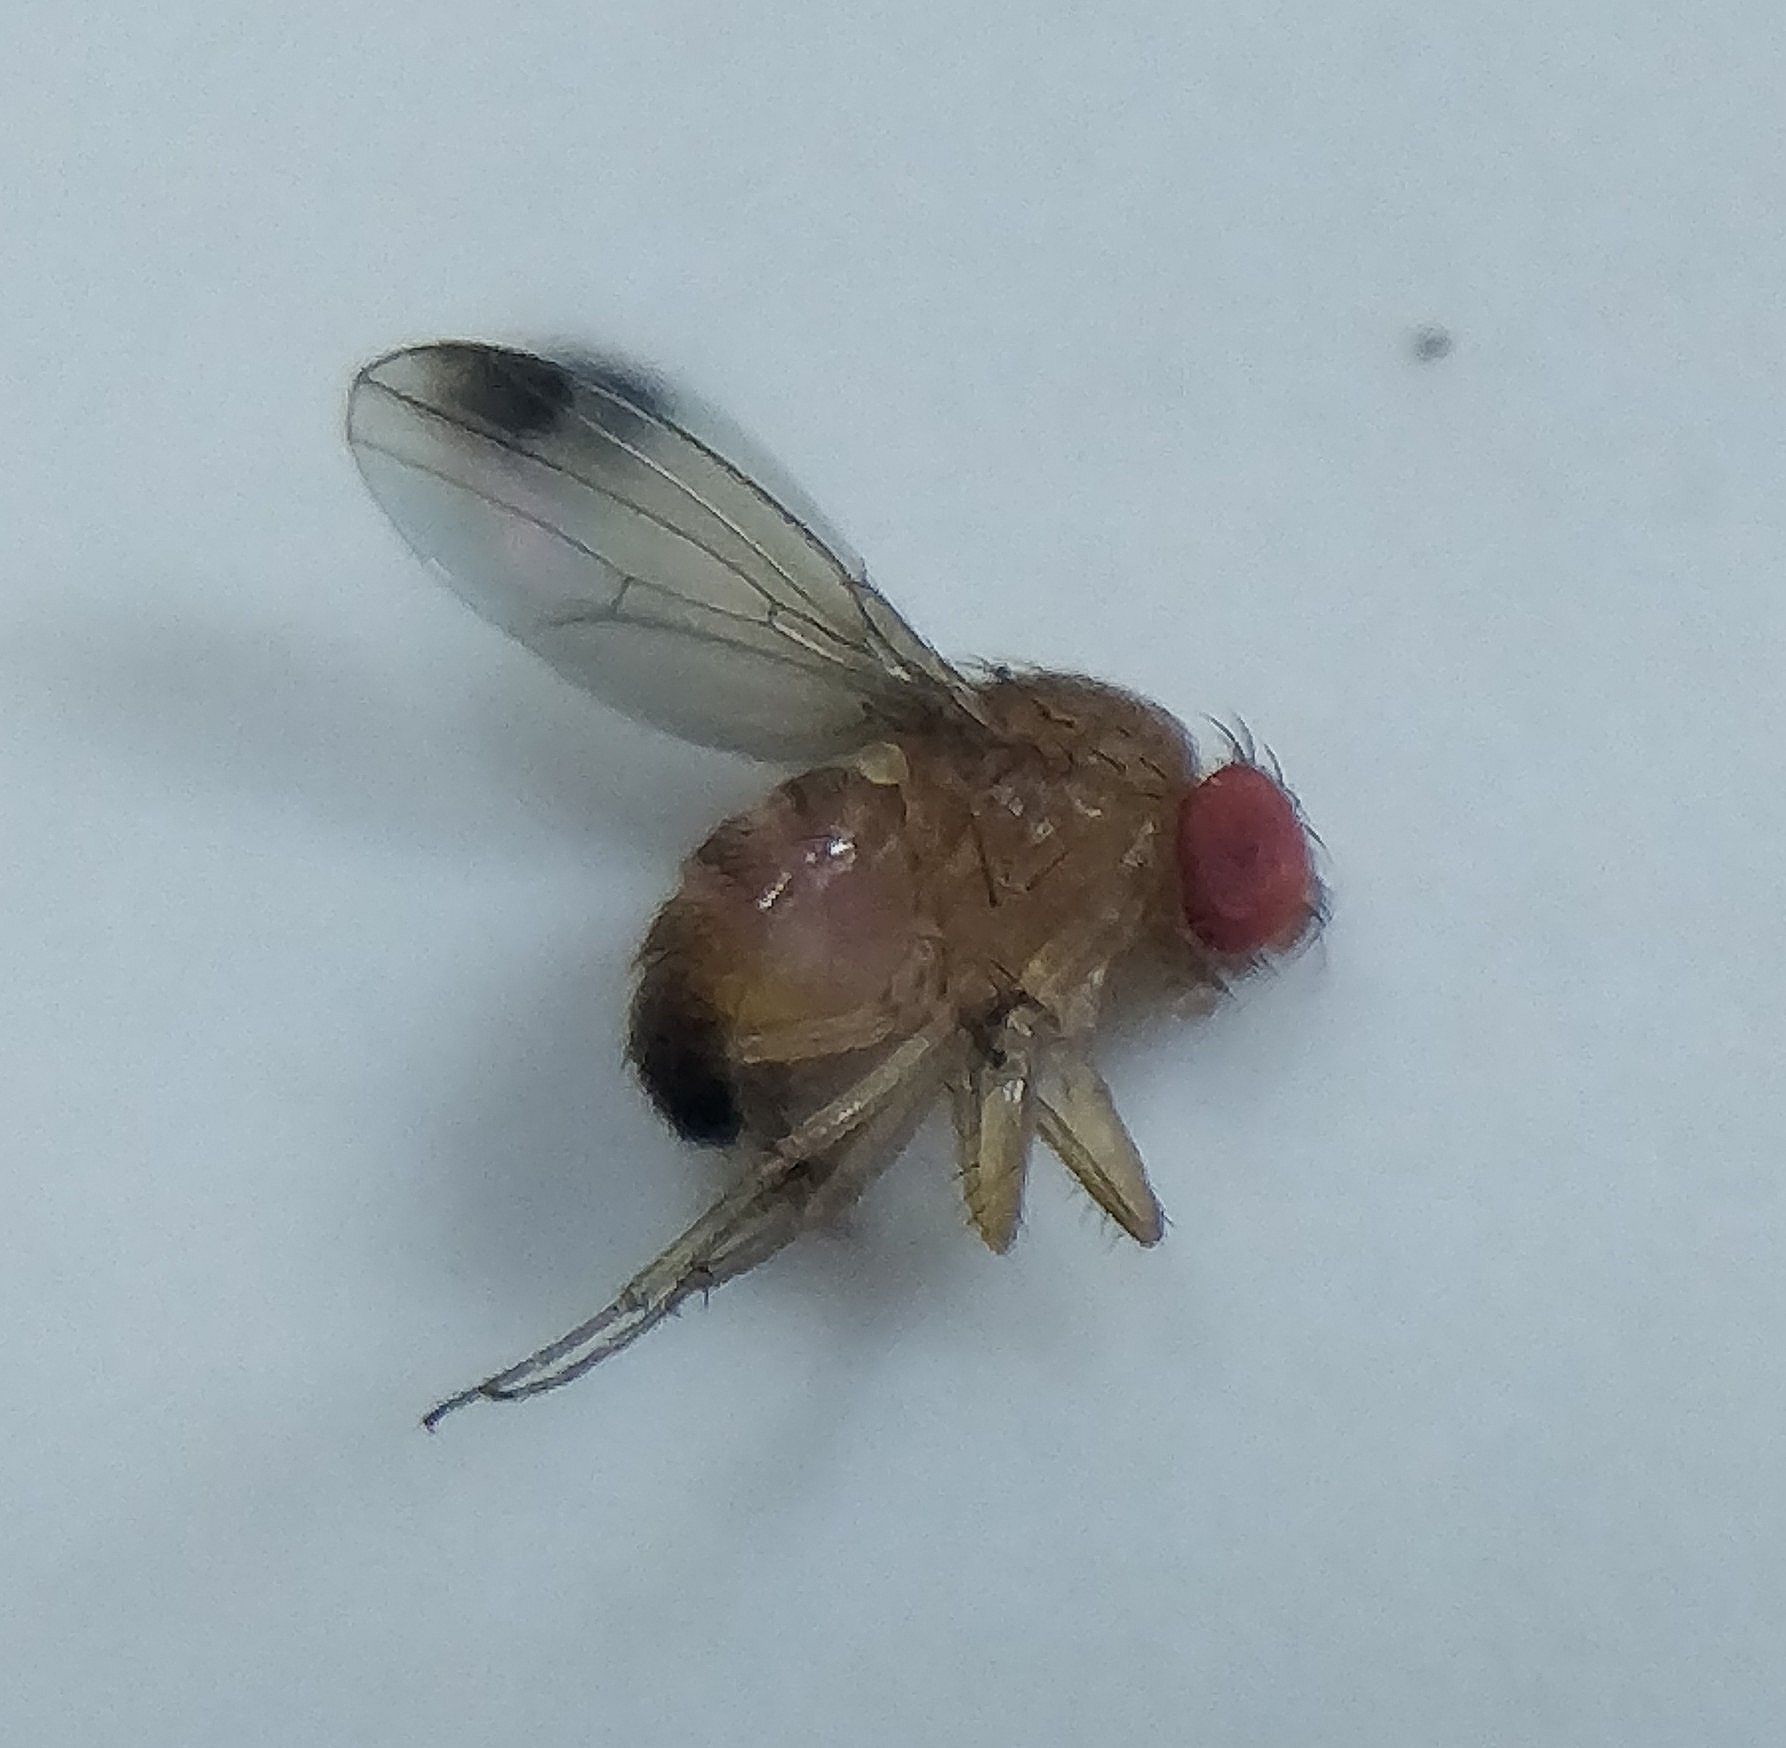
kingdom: Animalia
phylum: Arthropoda
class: Insecta
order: Diptera
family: Drosophilidae
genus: Drosophila
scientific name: Drosophila suzukii
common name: Spotted-wing drosophila
